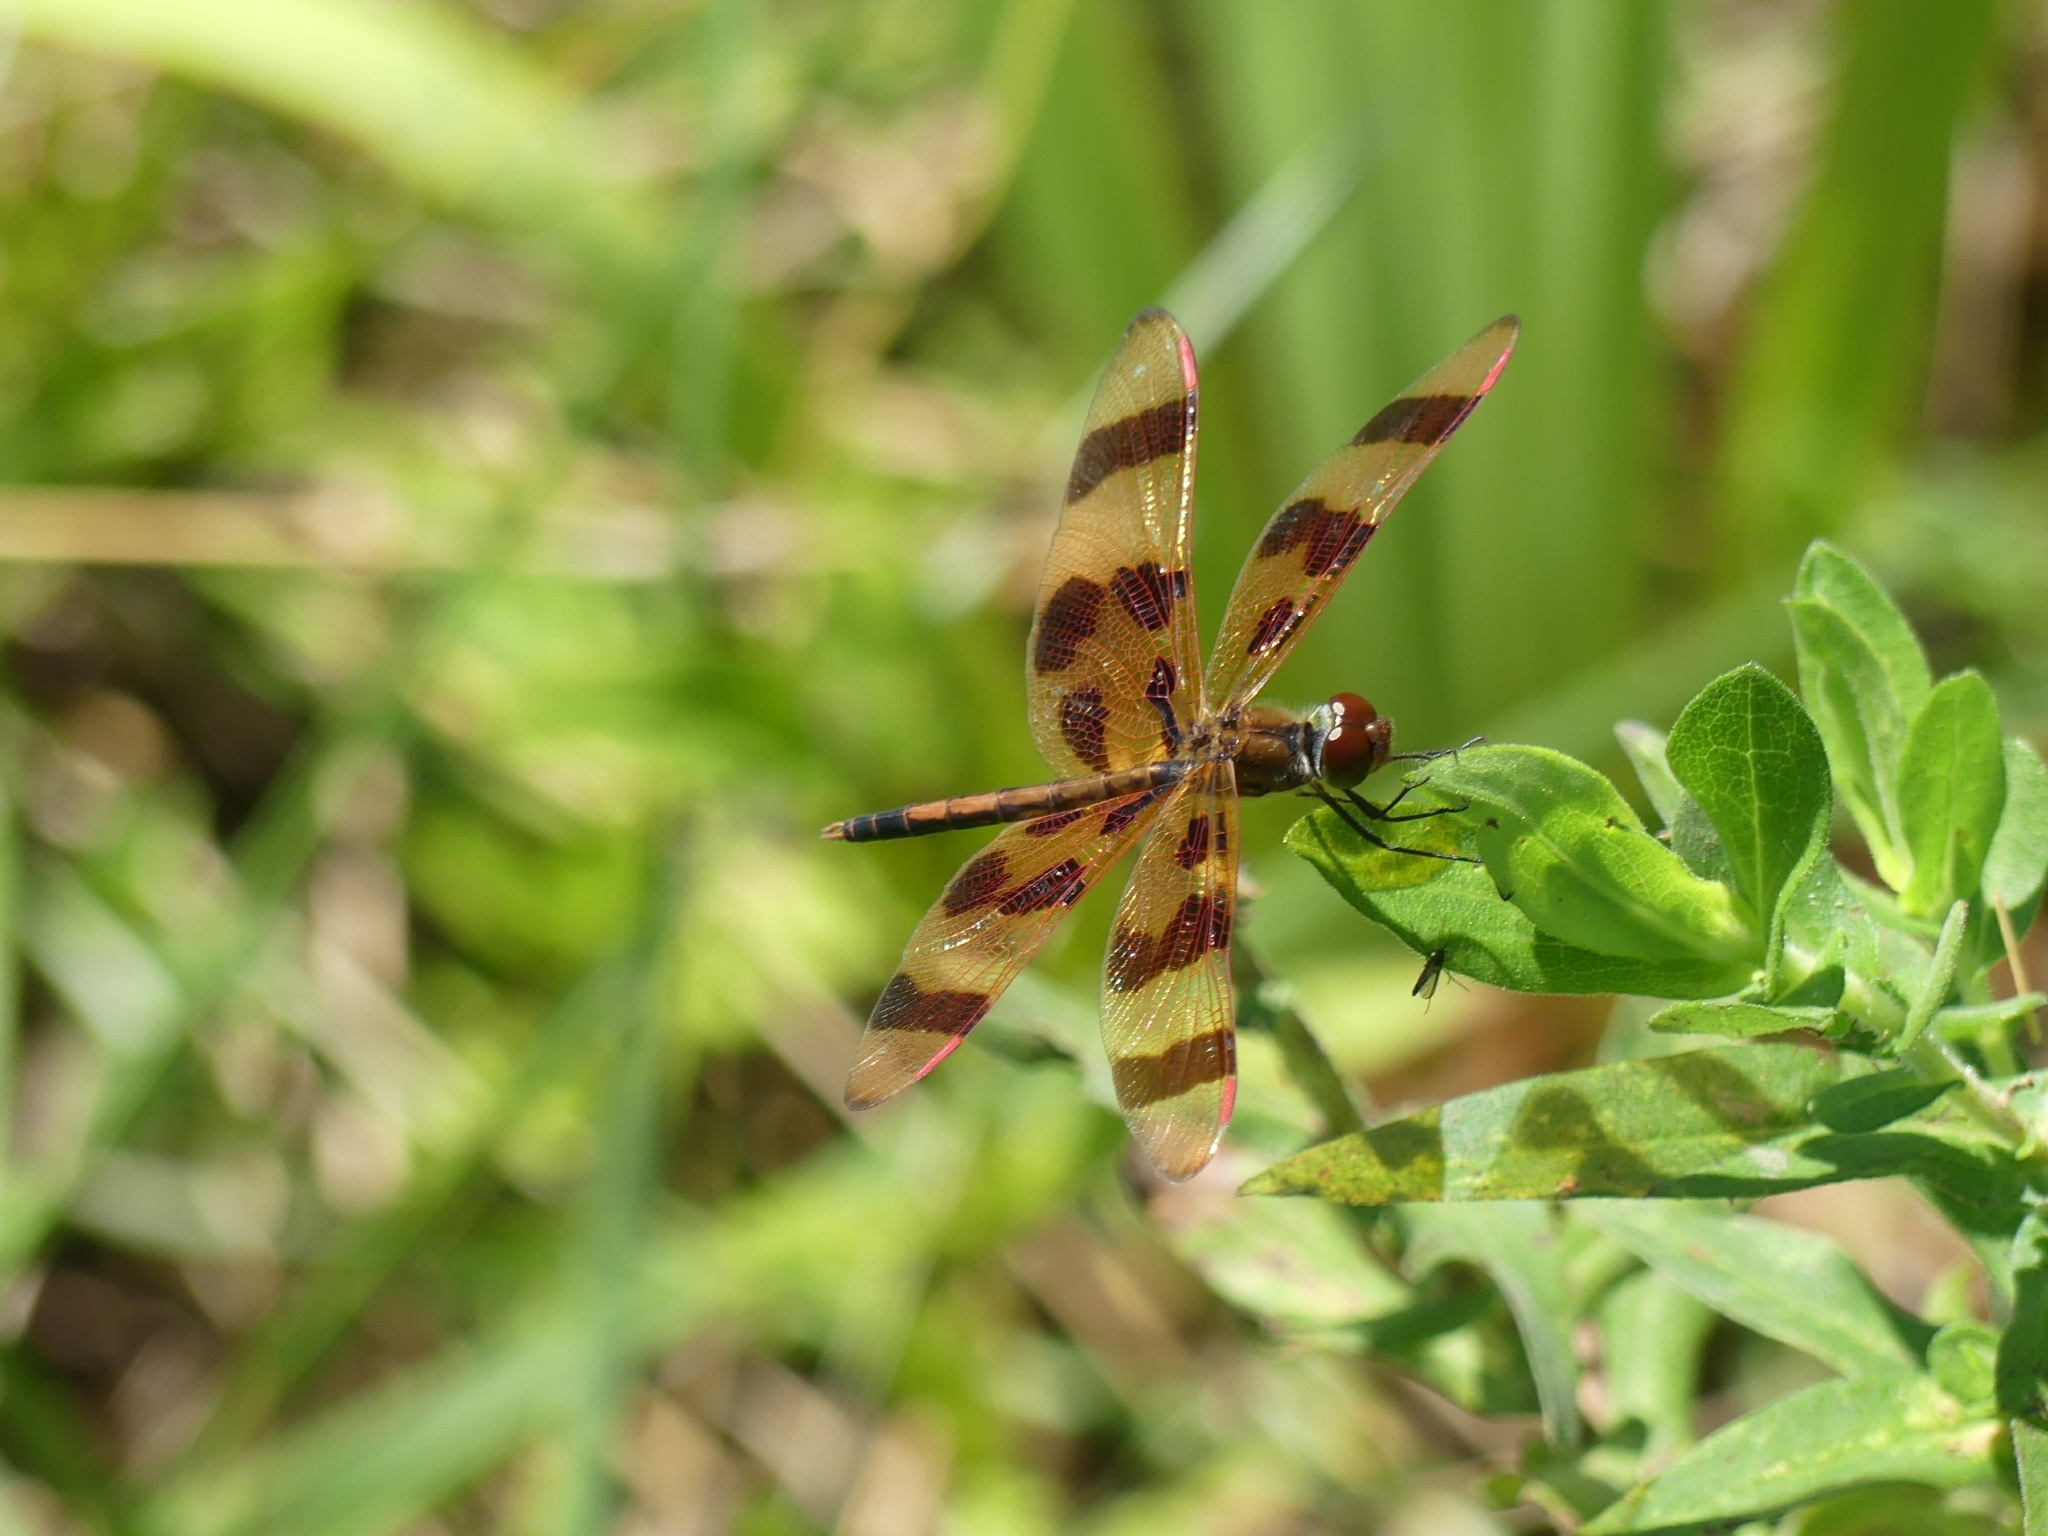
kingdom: Animalia
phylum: Arthropoda
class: Insecta
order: Odonata
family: Libellulidae
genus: Celithemis
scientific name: Celithemis eponina
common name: Halloween pennant
